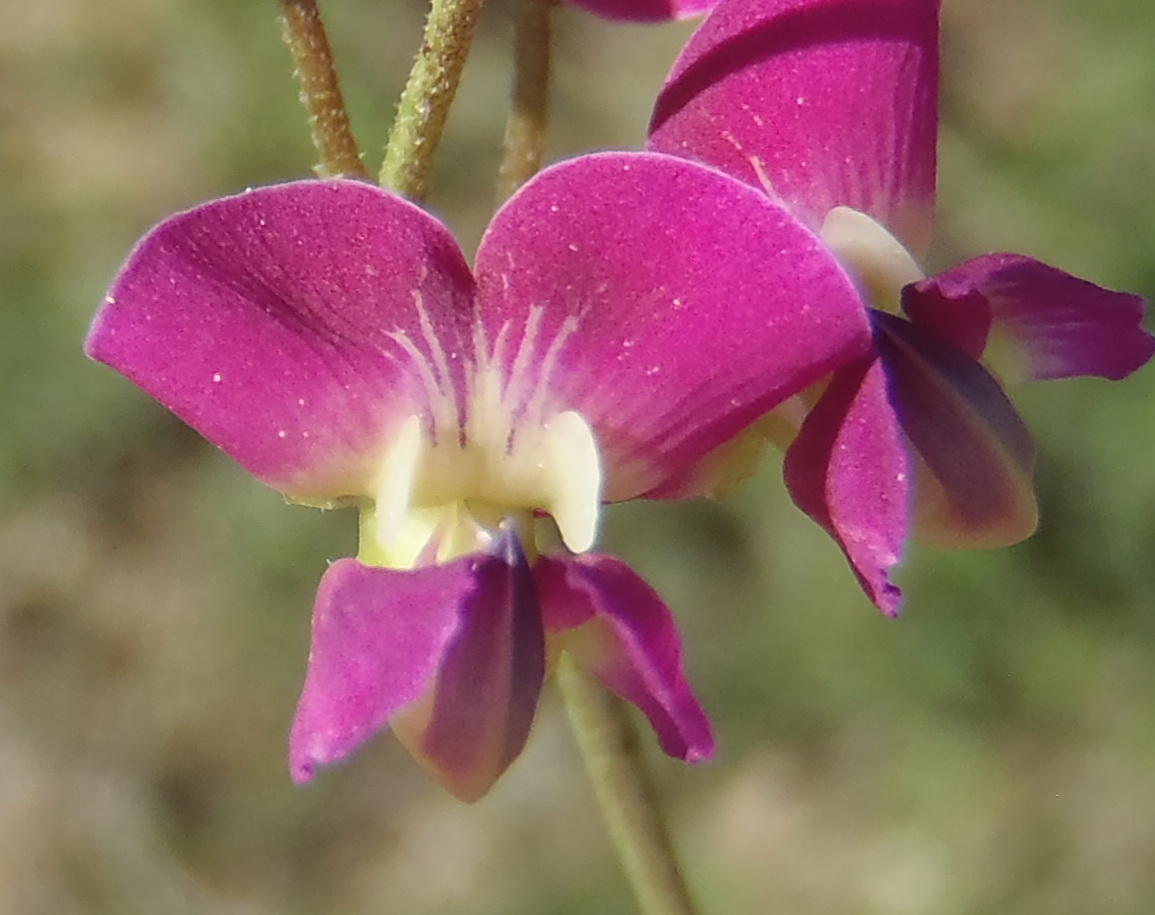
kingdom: Plantae
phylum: Tracheophyta
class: Magnoliopsida
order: Fabales
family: Fabaceae
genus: Dolichos
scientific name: Dolichos hastiformis
